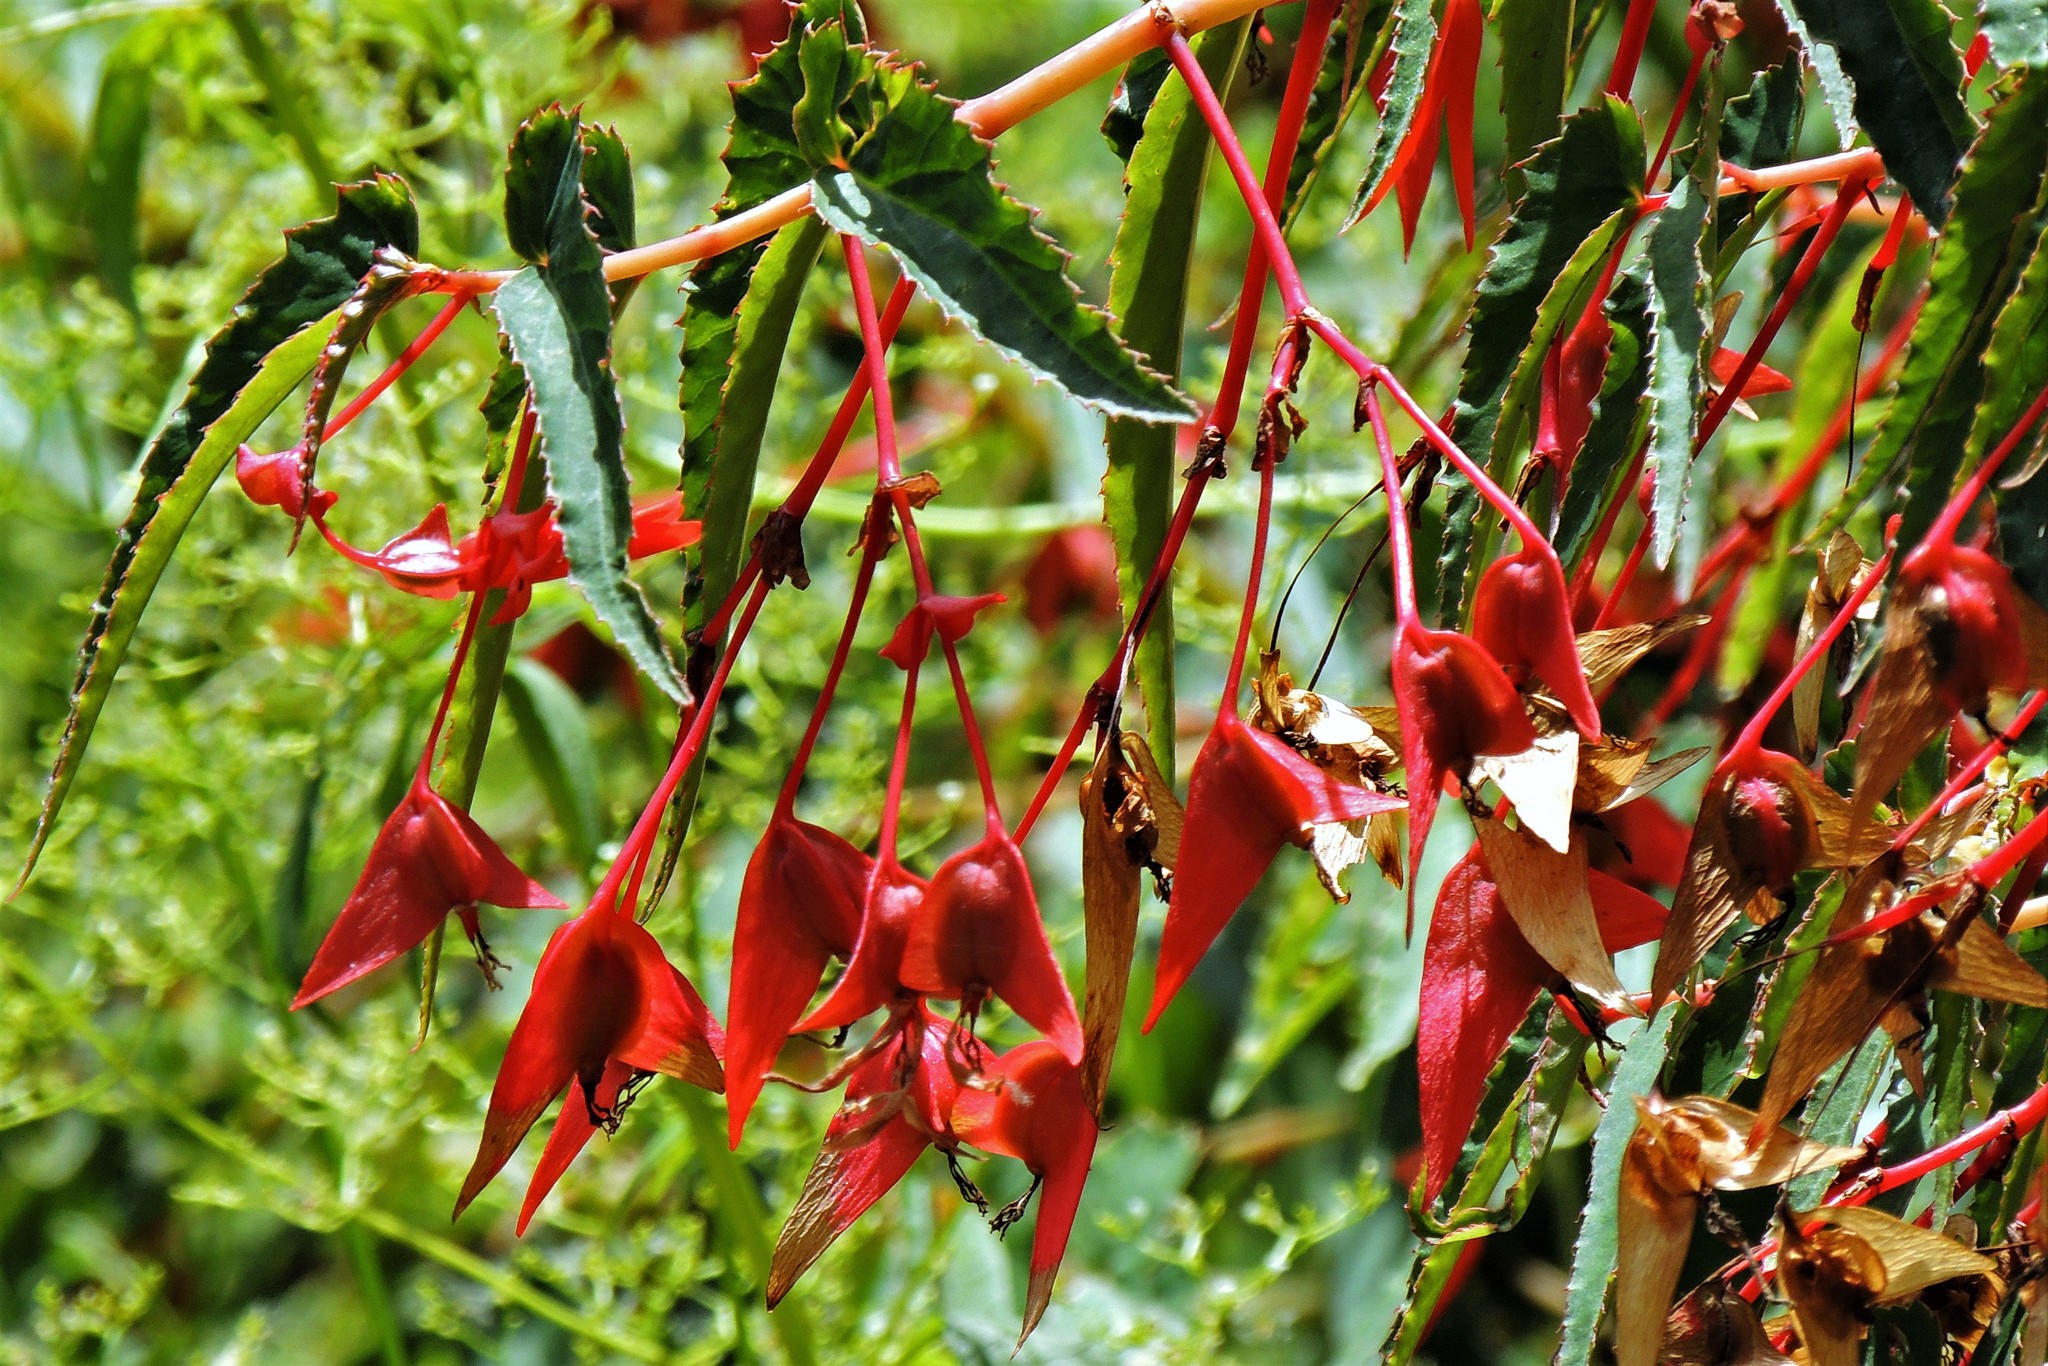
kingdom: Plantae
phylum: Tracheophyta
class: Magnoliopsida
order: Cucurbitales
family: Begoniaceae
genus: Begonia
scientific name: Begonia boliviensis
